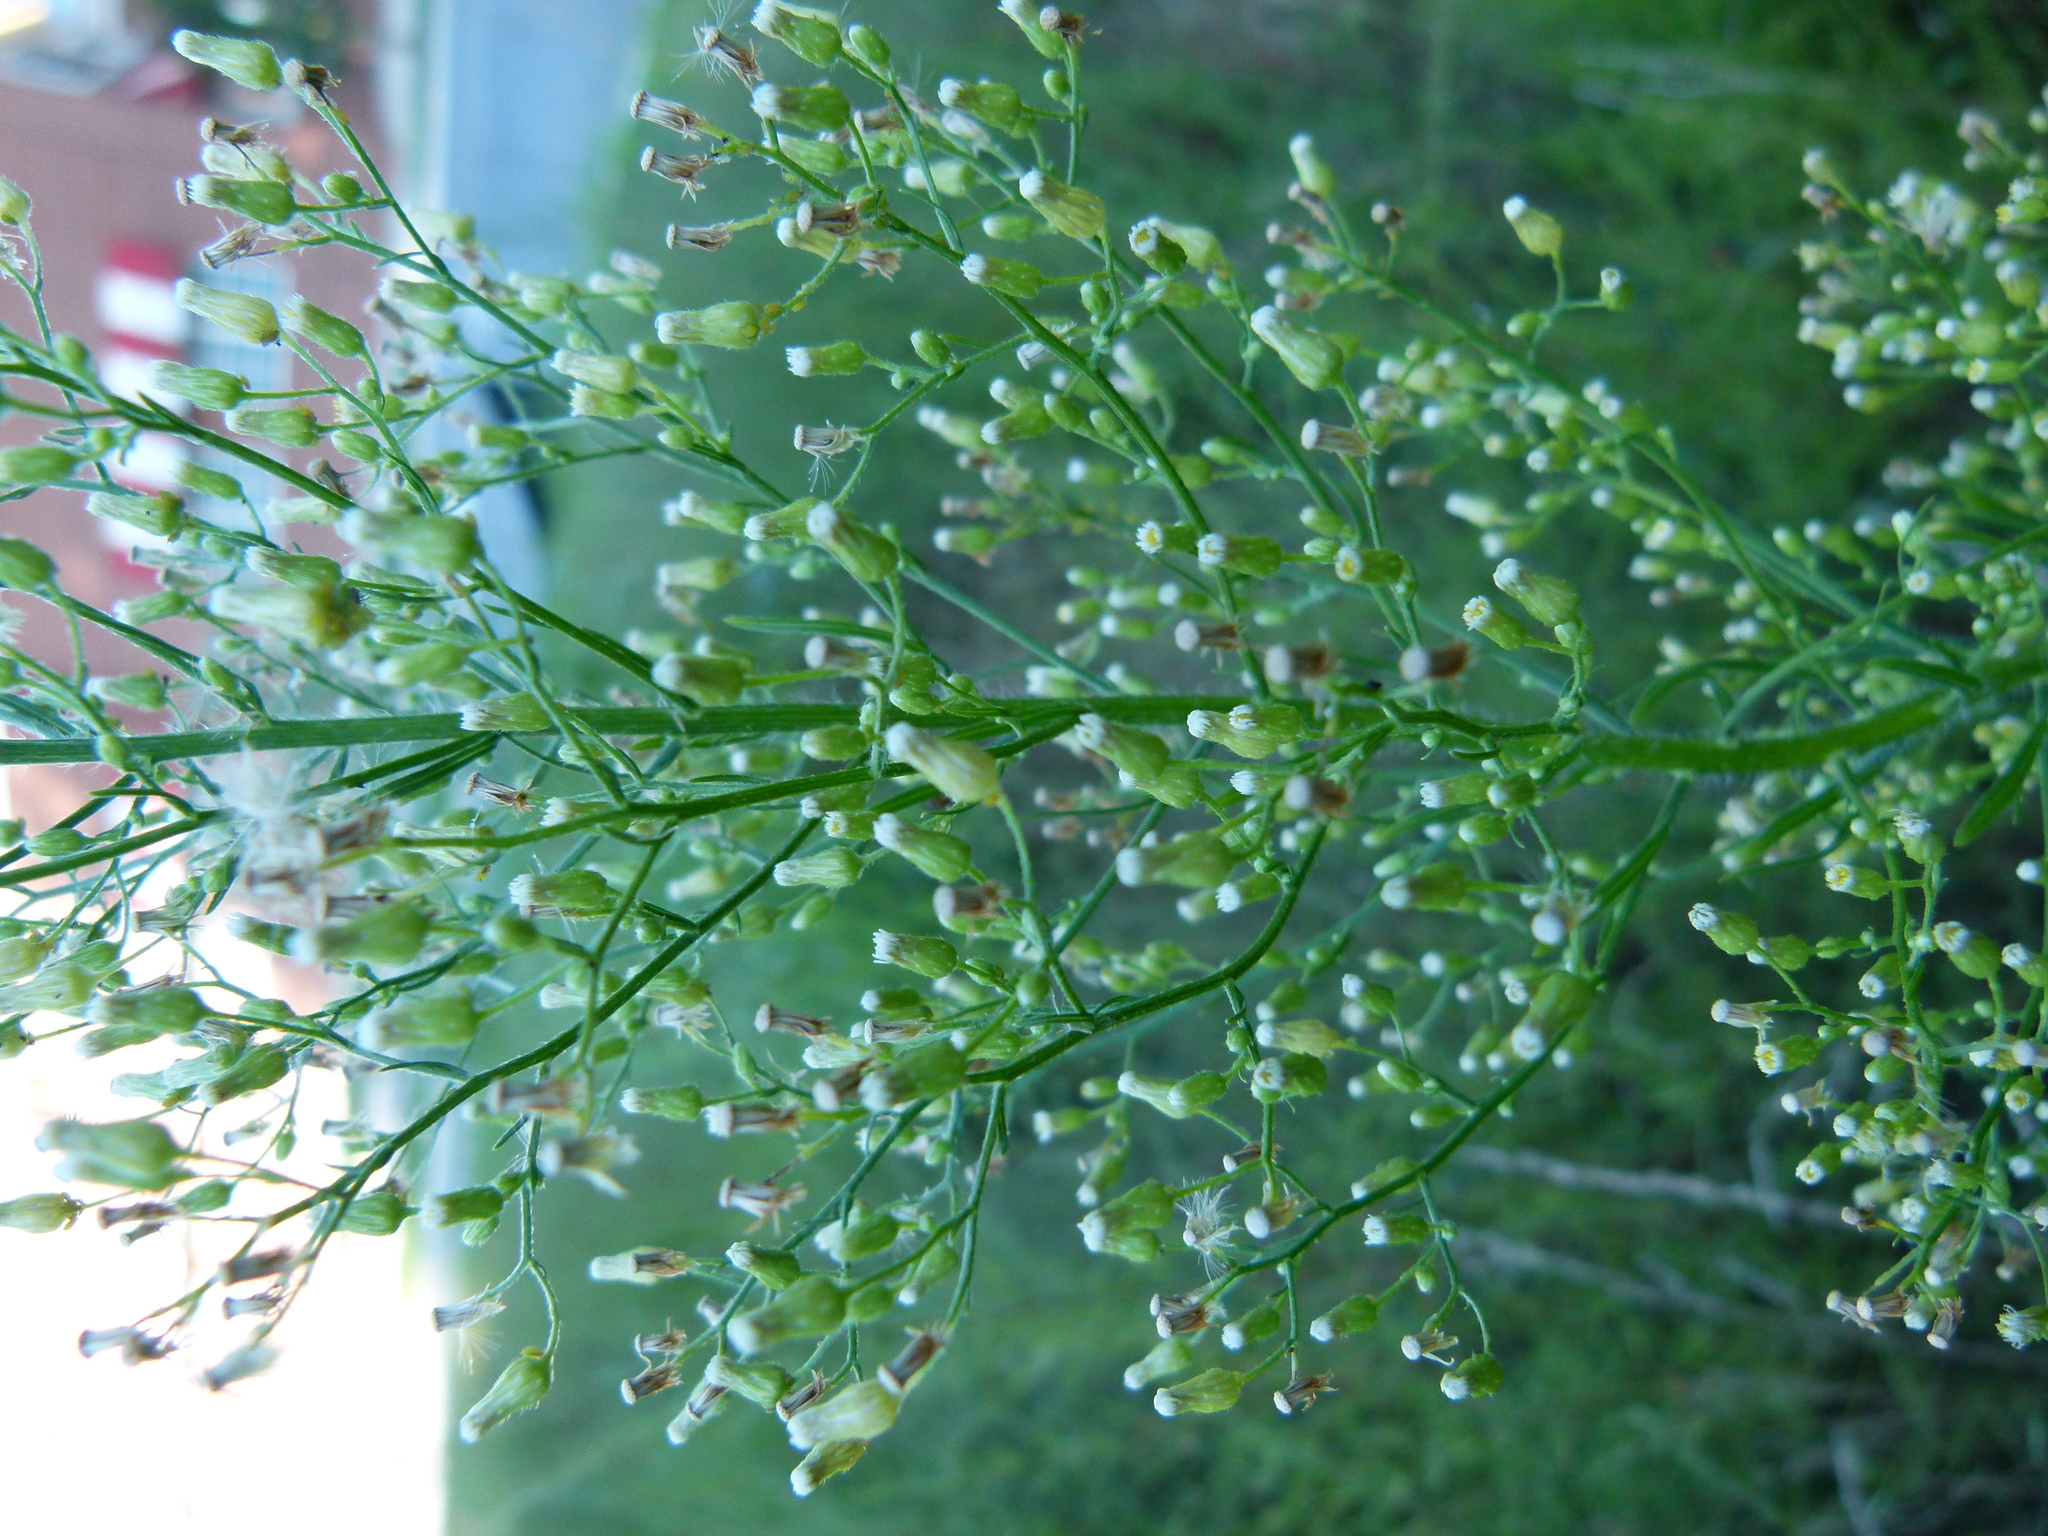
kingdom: Plantae
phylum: Tracheophyta
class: Magnoliopsida
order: Asterales
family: Asteraceae
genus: Erigeron
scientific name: Erigeron canadensis
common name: Canadian fleabane
